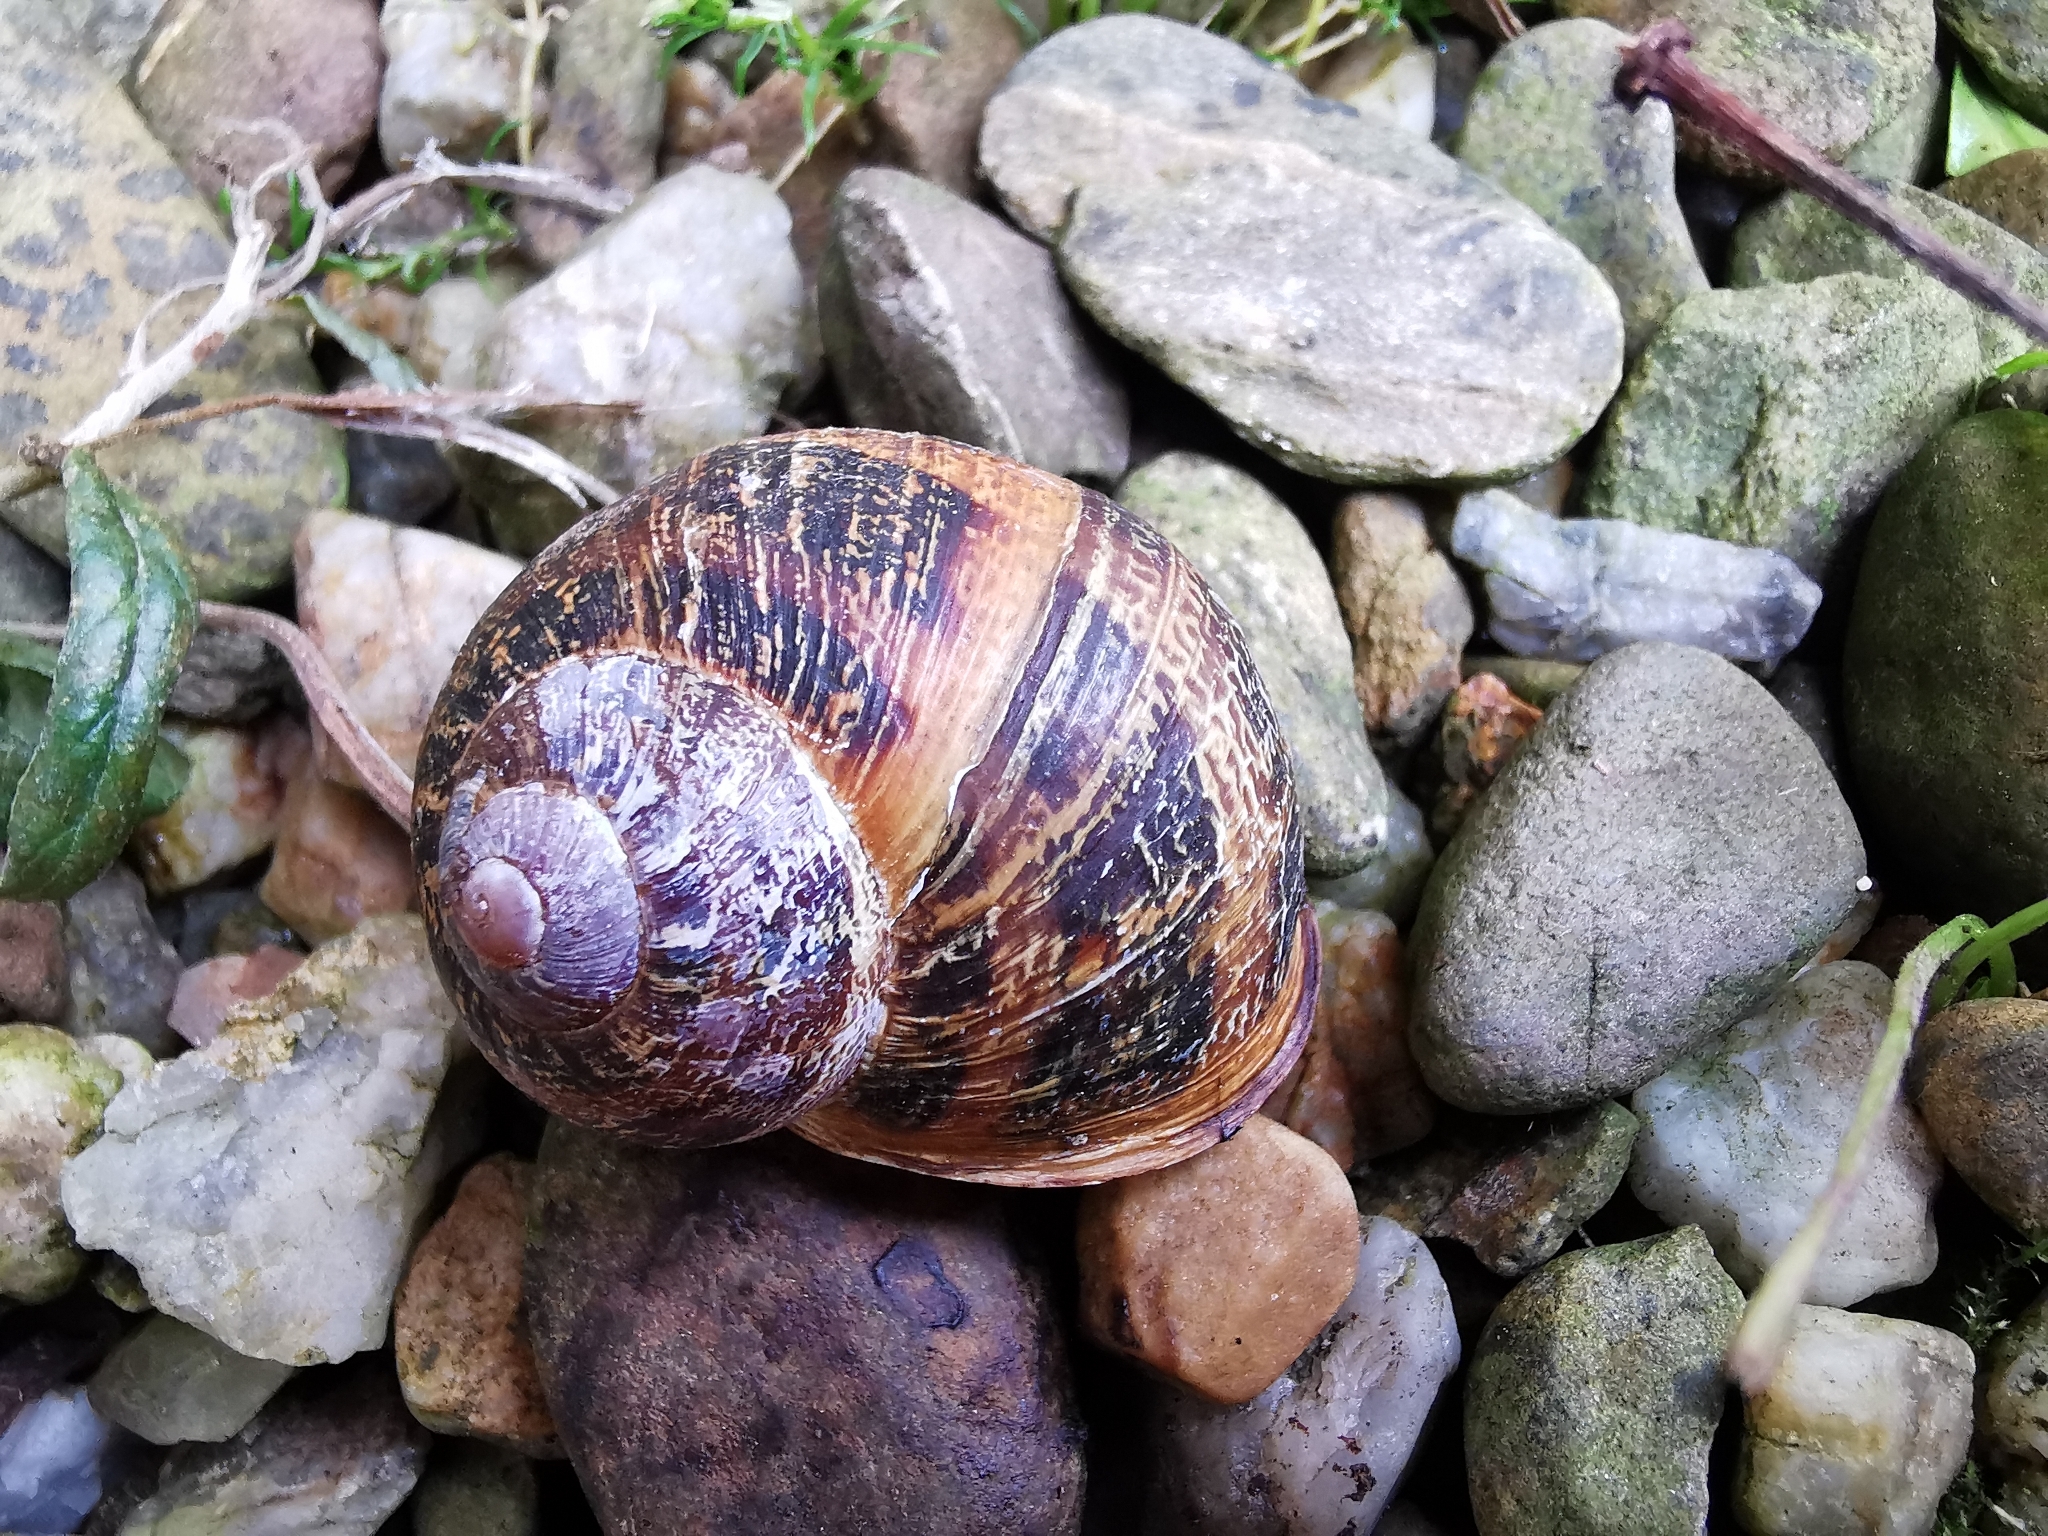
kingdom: Animalia
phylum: Mollusca
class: Gastropoda
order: Stylommatophora
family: Helicidae
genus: Cornu
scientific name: Cornu aspersum
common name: Brown garden snail
